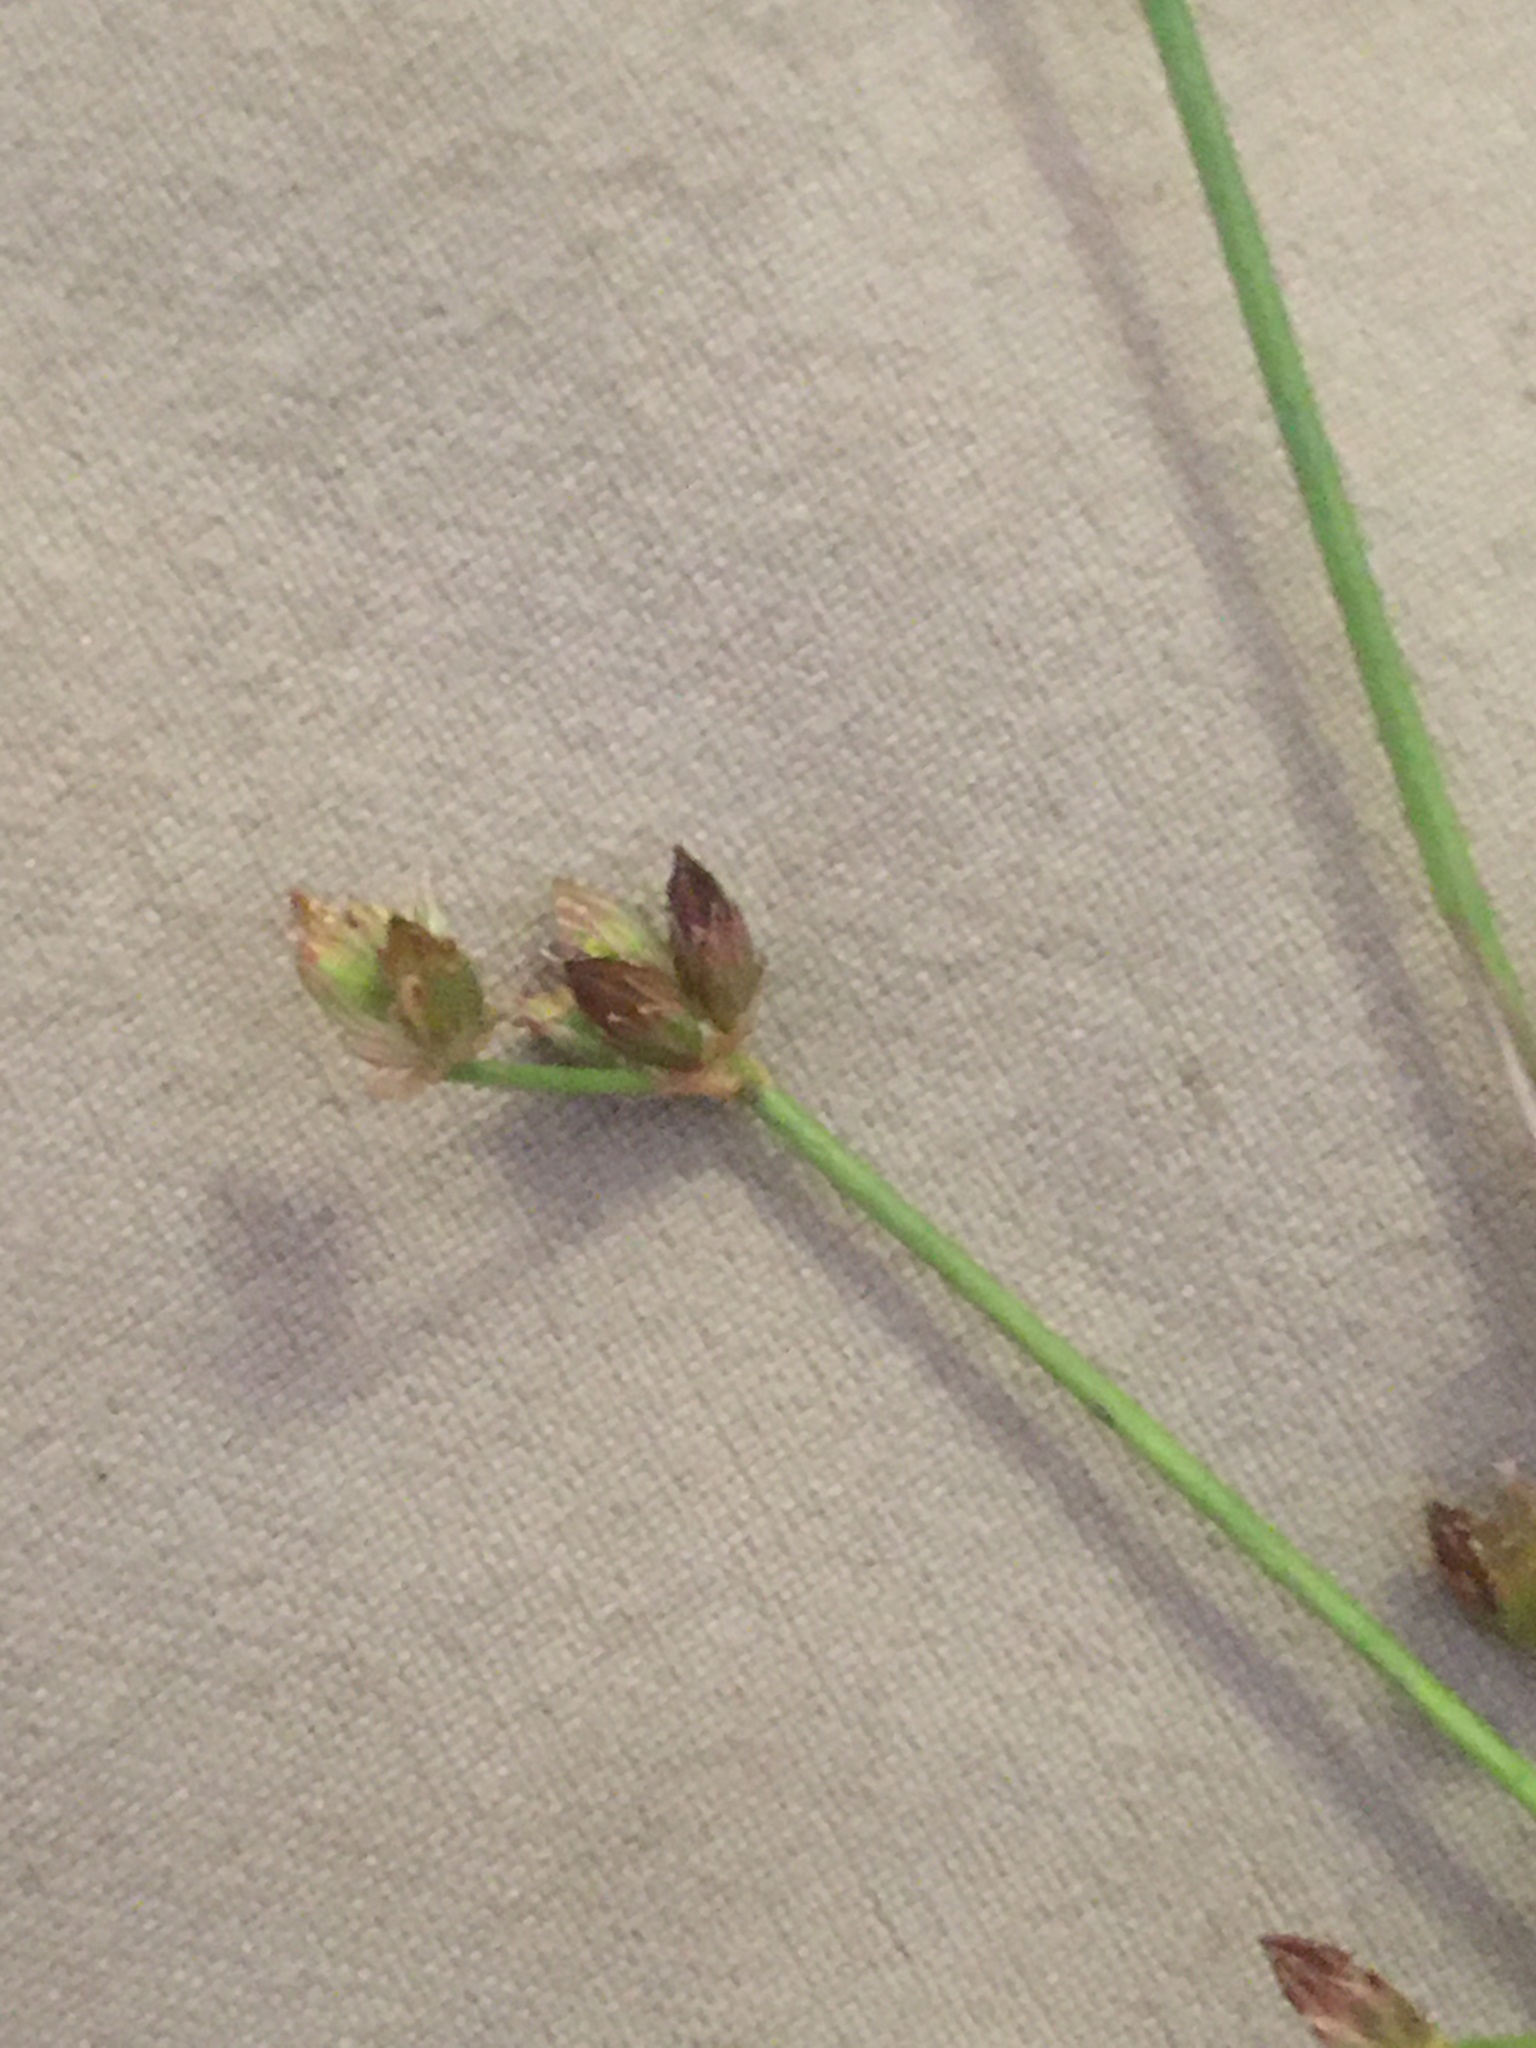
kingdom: Plantae
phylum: Tracheophyta
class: Liliopsida
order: Poales
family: Juncaceae
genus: Juncus
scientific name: Juncus brachycephalus
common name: Short-headed rush
